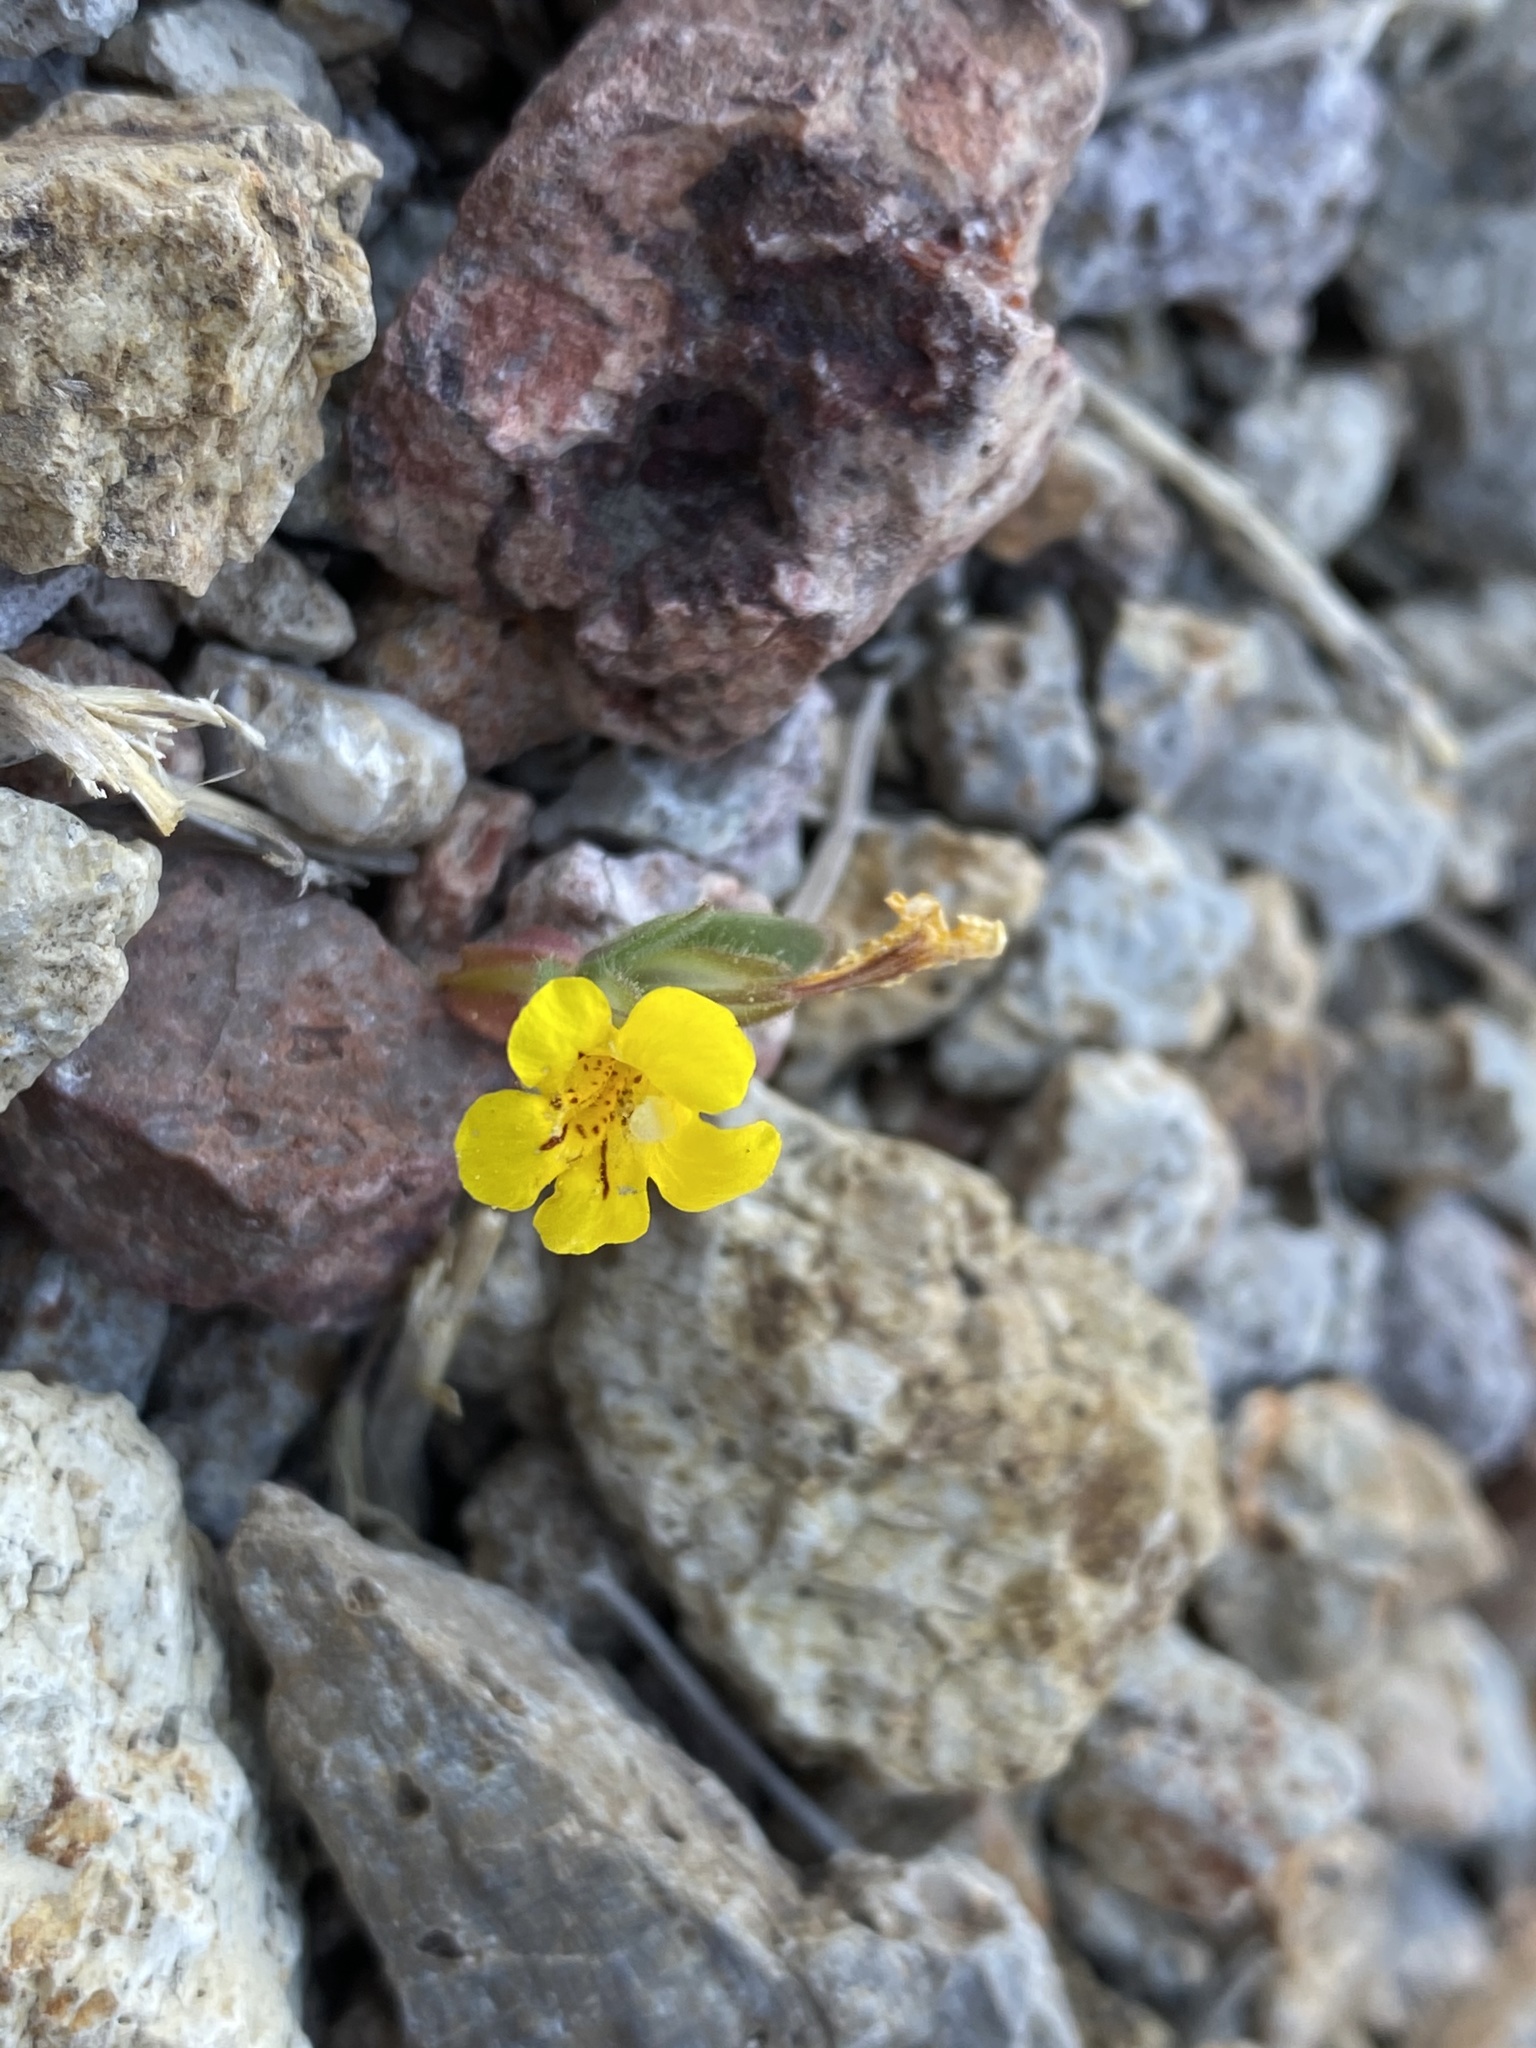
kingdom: Plantae
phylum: Tracheophyta
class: Magnoliopsida
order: Lamiales
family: Phrymaceae
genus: Diplacus
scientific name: Diplacus mephiticus
